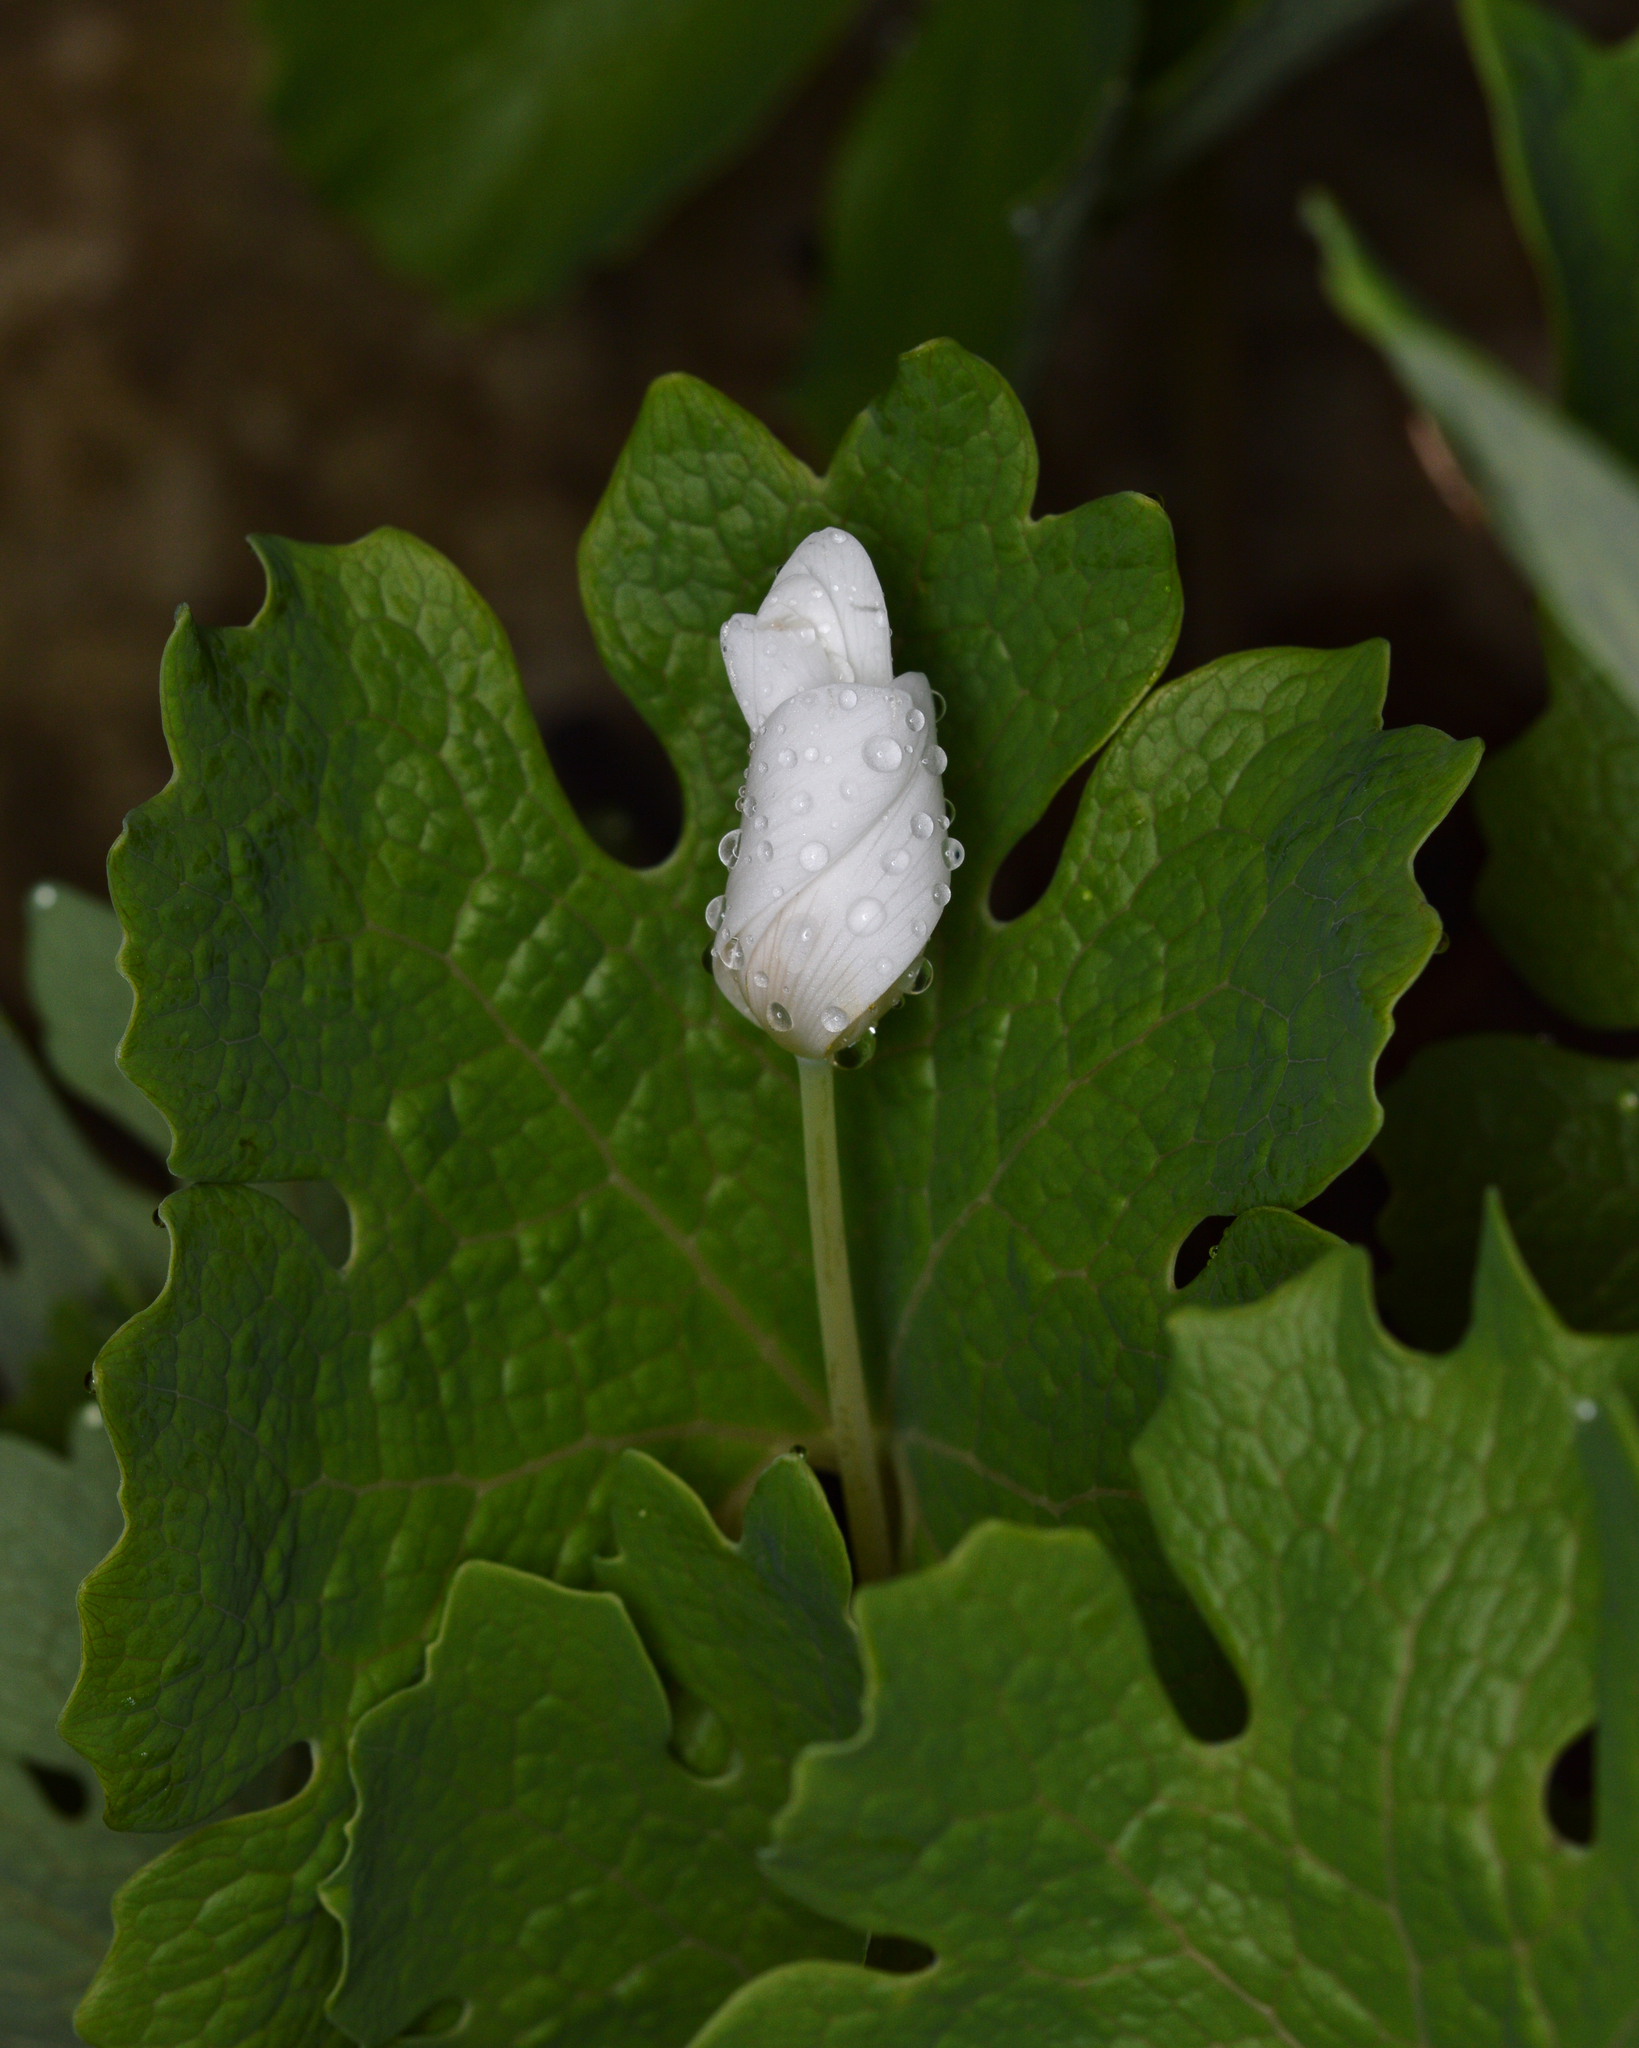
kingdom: Plantae
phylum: Tracheophyta
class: Magnoliopsida
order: Ranunculales
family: Papaveraceae
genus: Sanguinaria
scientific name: Sanguinaria canadensis
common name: Bloodroot
